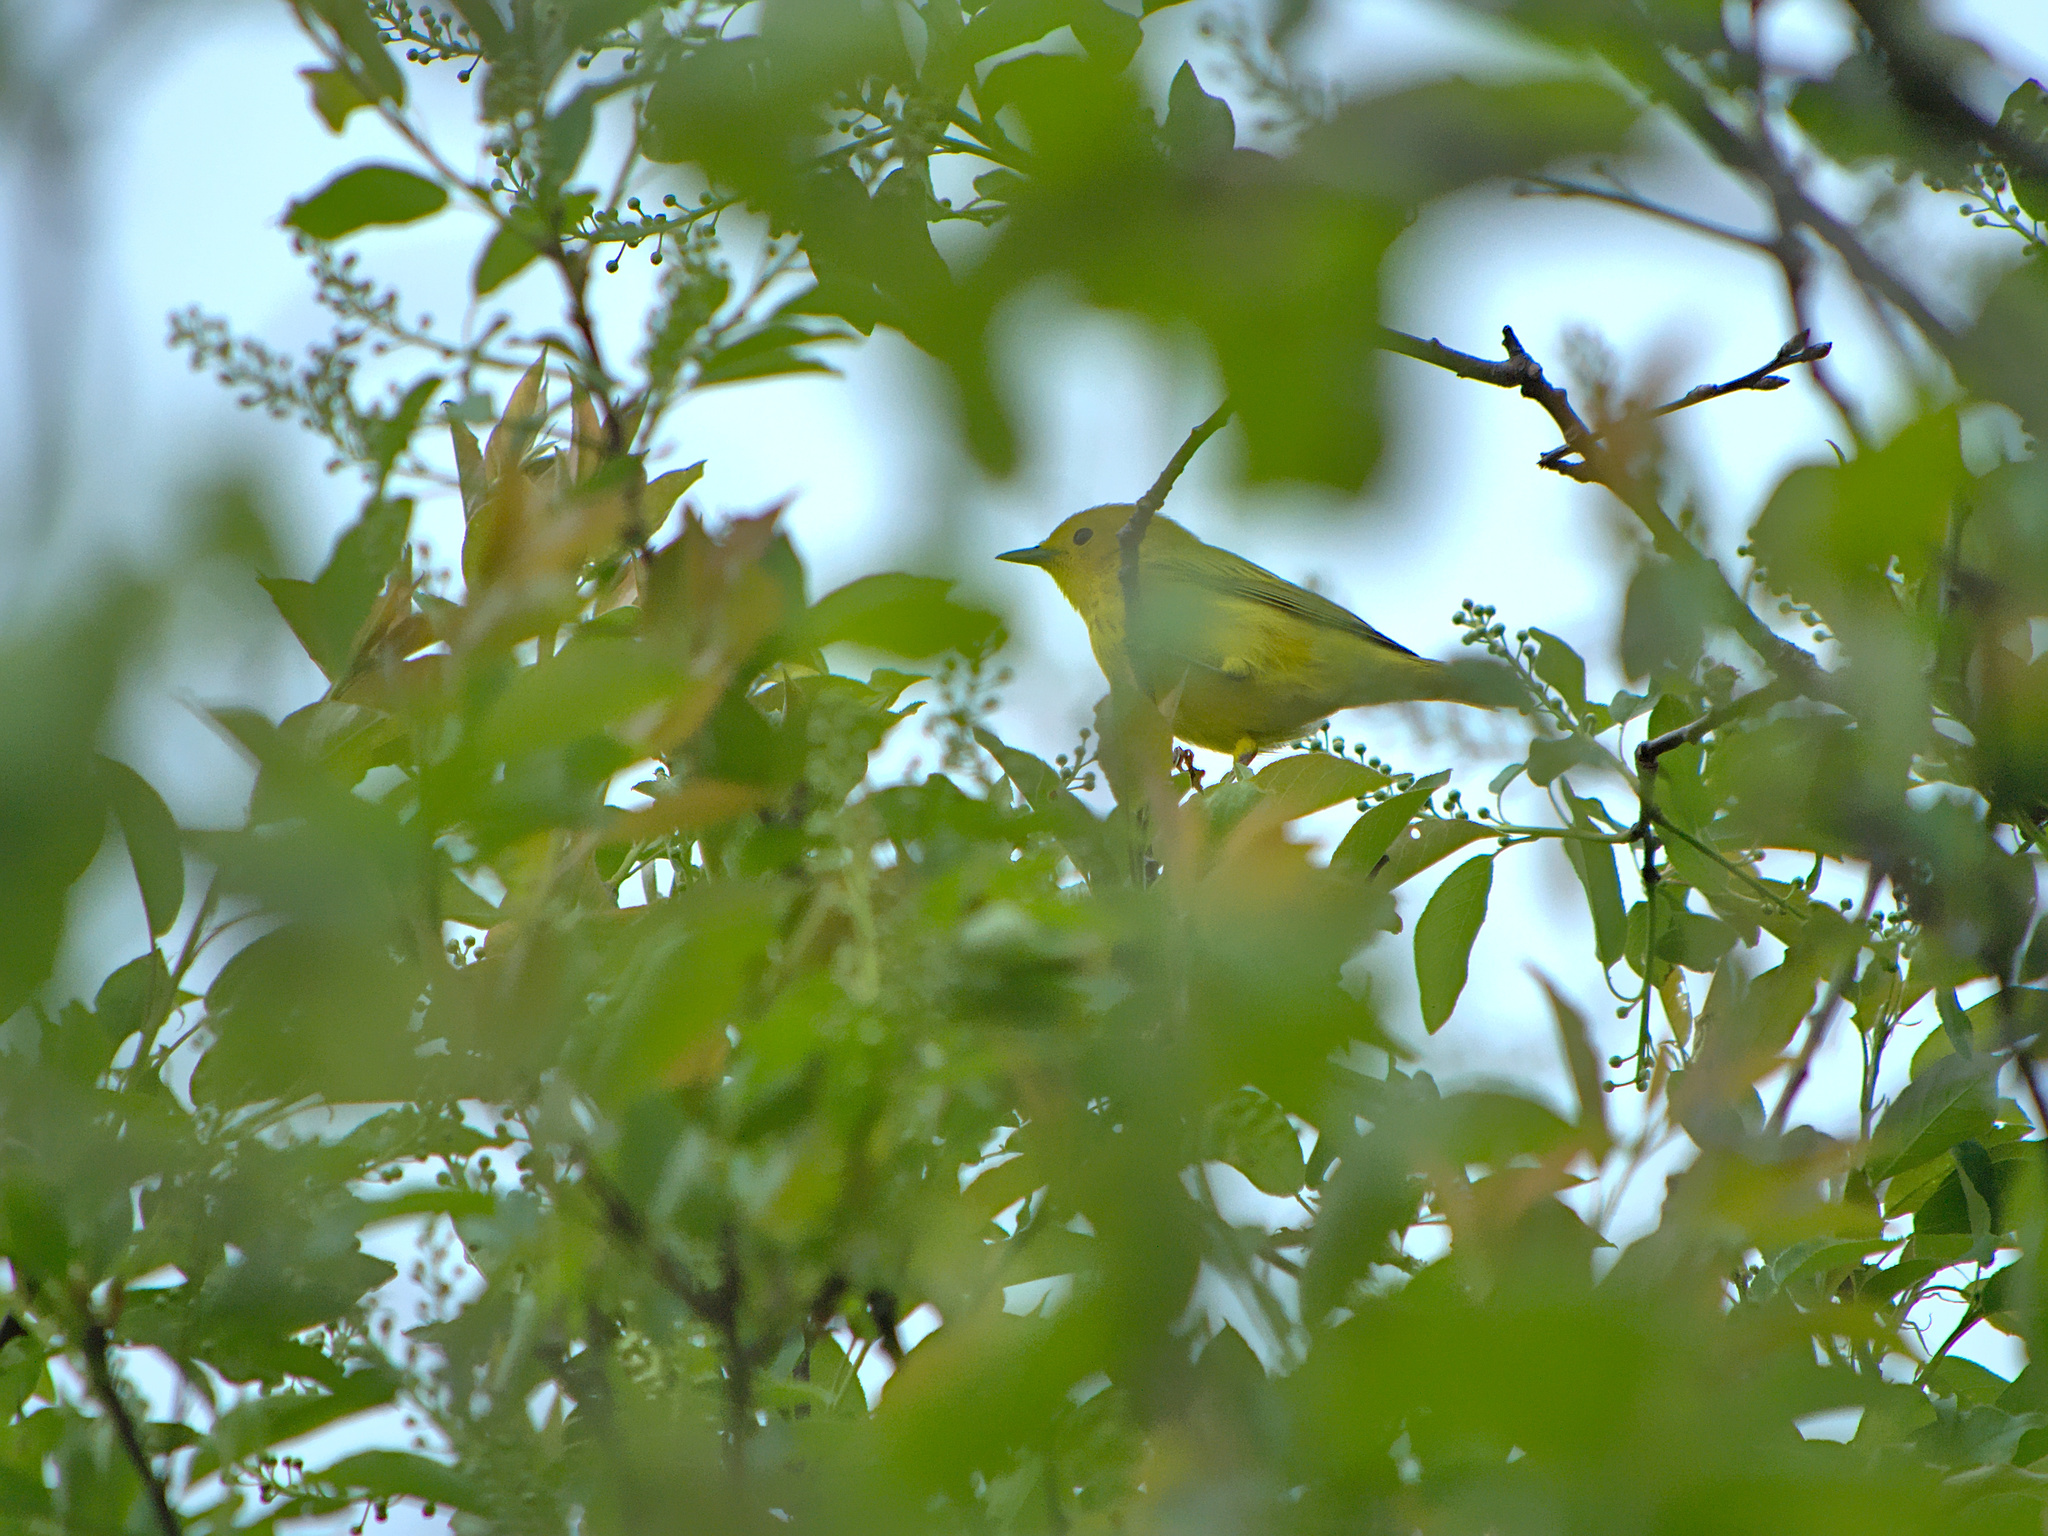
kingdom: Animalia
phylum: Chordata
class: Aves
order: Passeriformes
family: Parulidae
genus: Setophaga
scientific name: Setophaga petechia
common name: Yellow warbler
